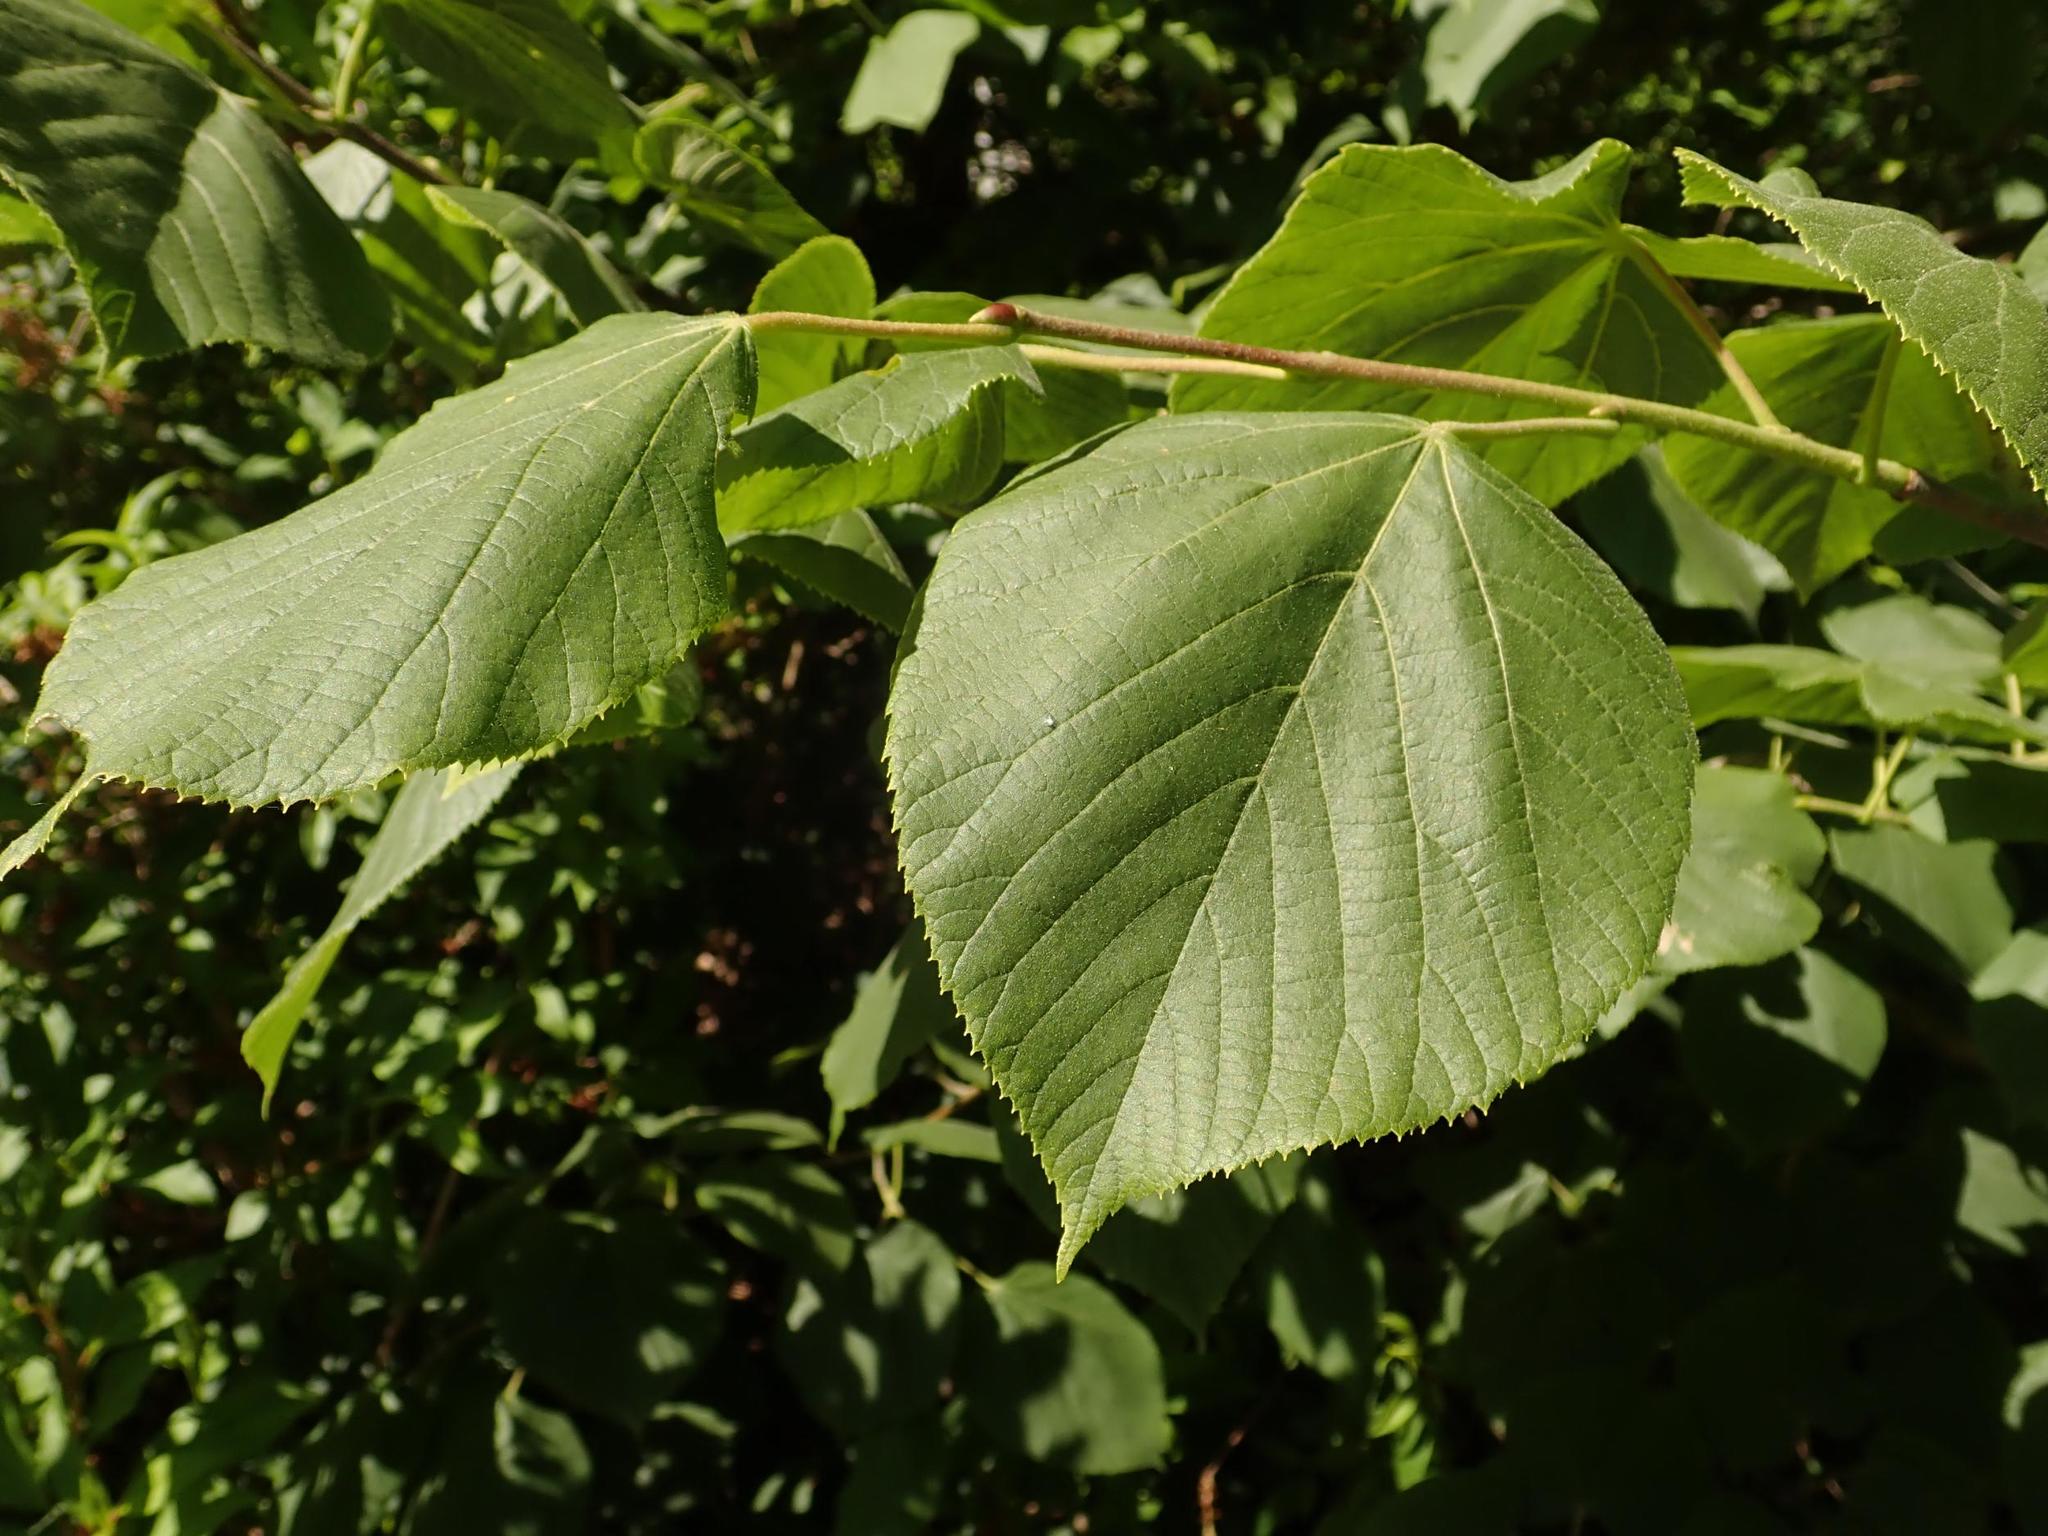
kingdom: Plantae
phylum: Tracheophyta
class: Magnoliopsida
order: Malvales
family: Malvaceae
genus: Tilia
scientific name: Tilia platyphyllos
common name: Large-leaved lime
